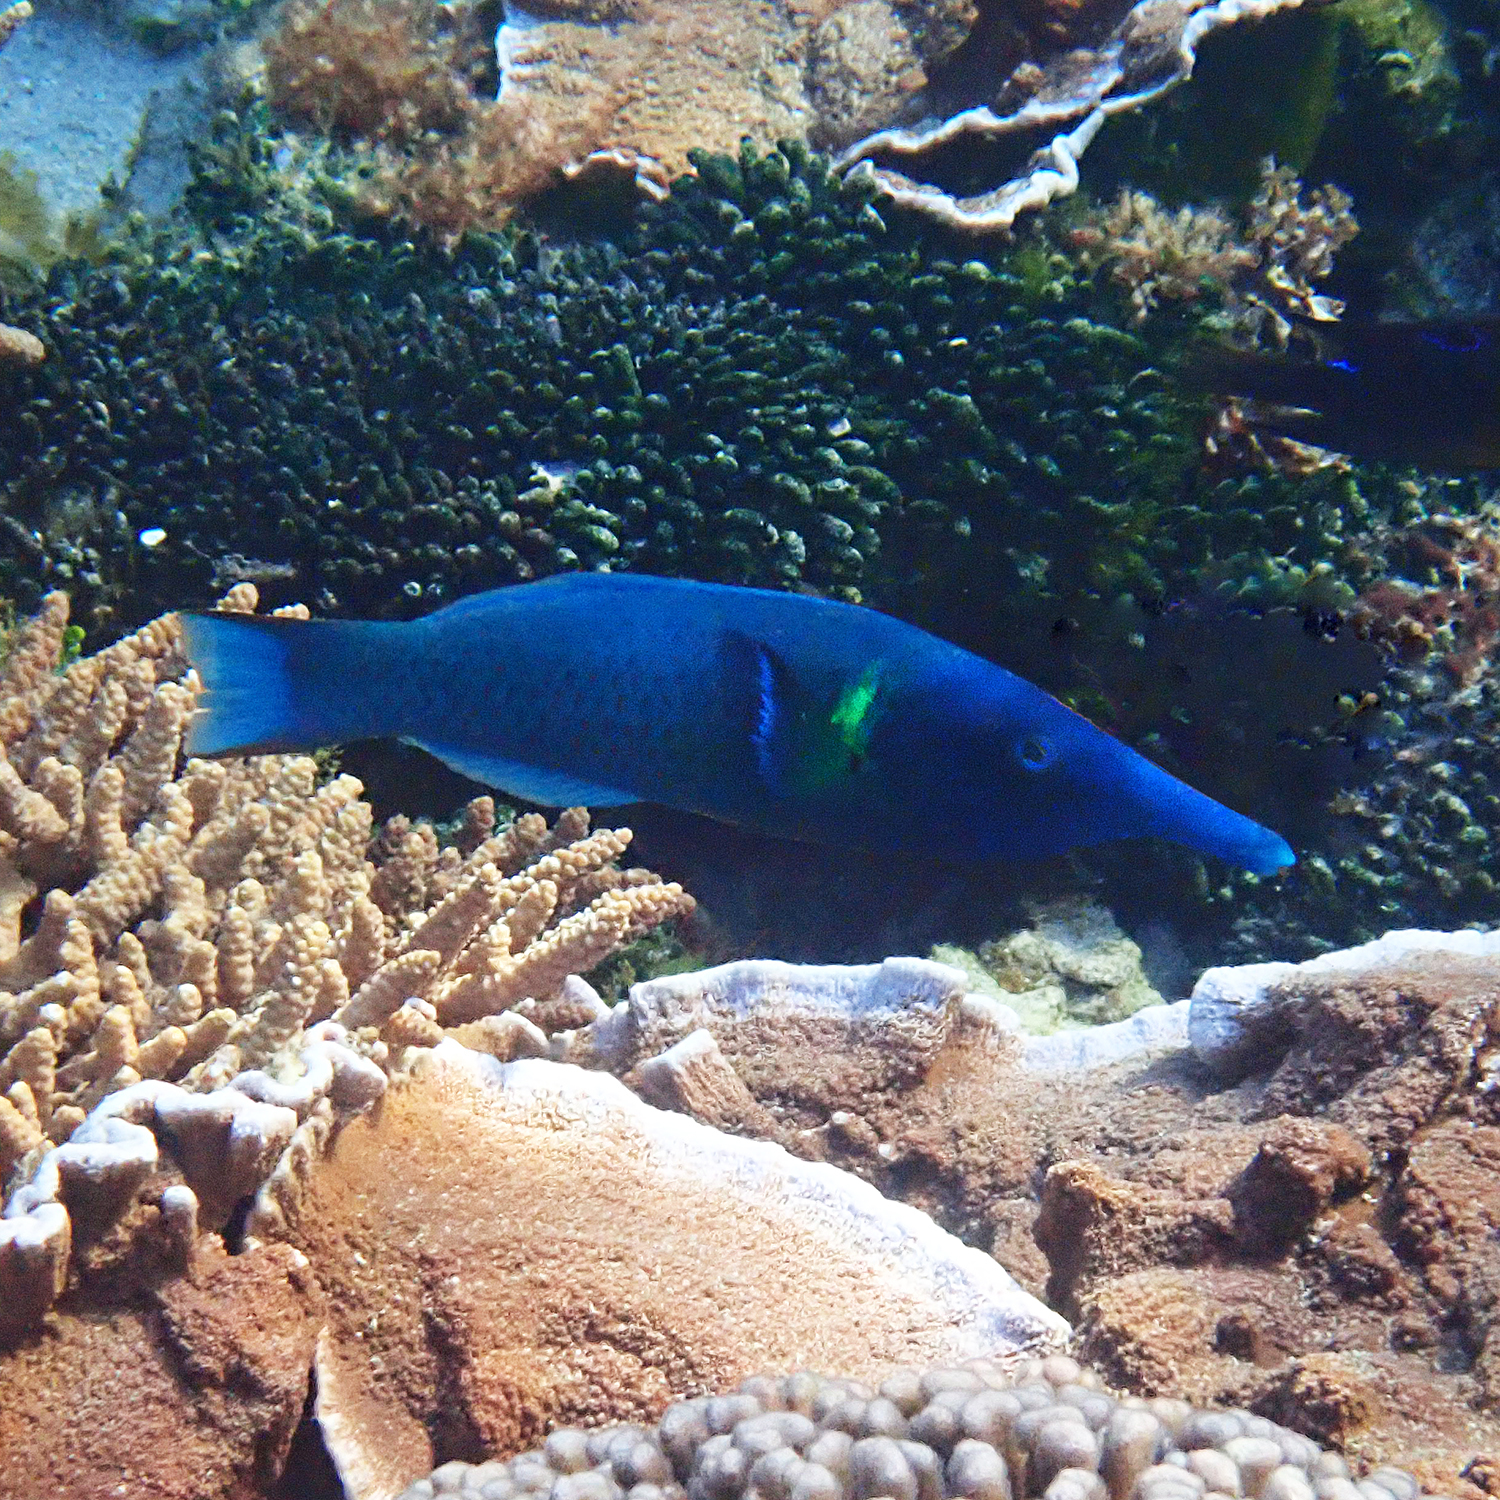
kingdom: Animalia
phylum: Chordata
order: Perciformes
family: Labridae
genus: Gomphosus
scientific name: Gomphosus varius
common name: Bird wrasse
